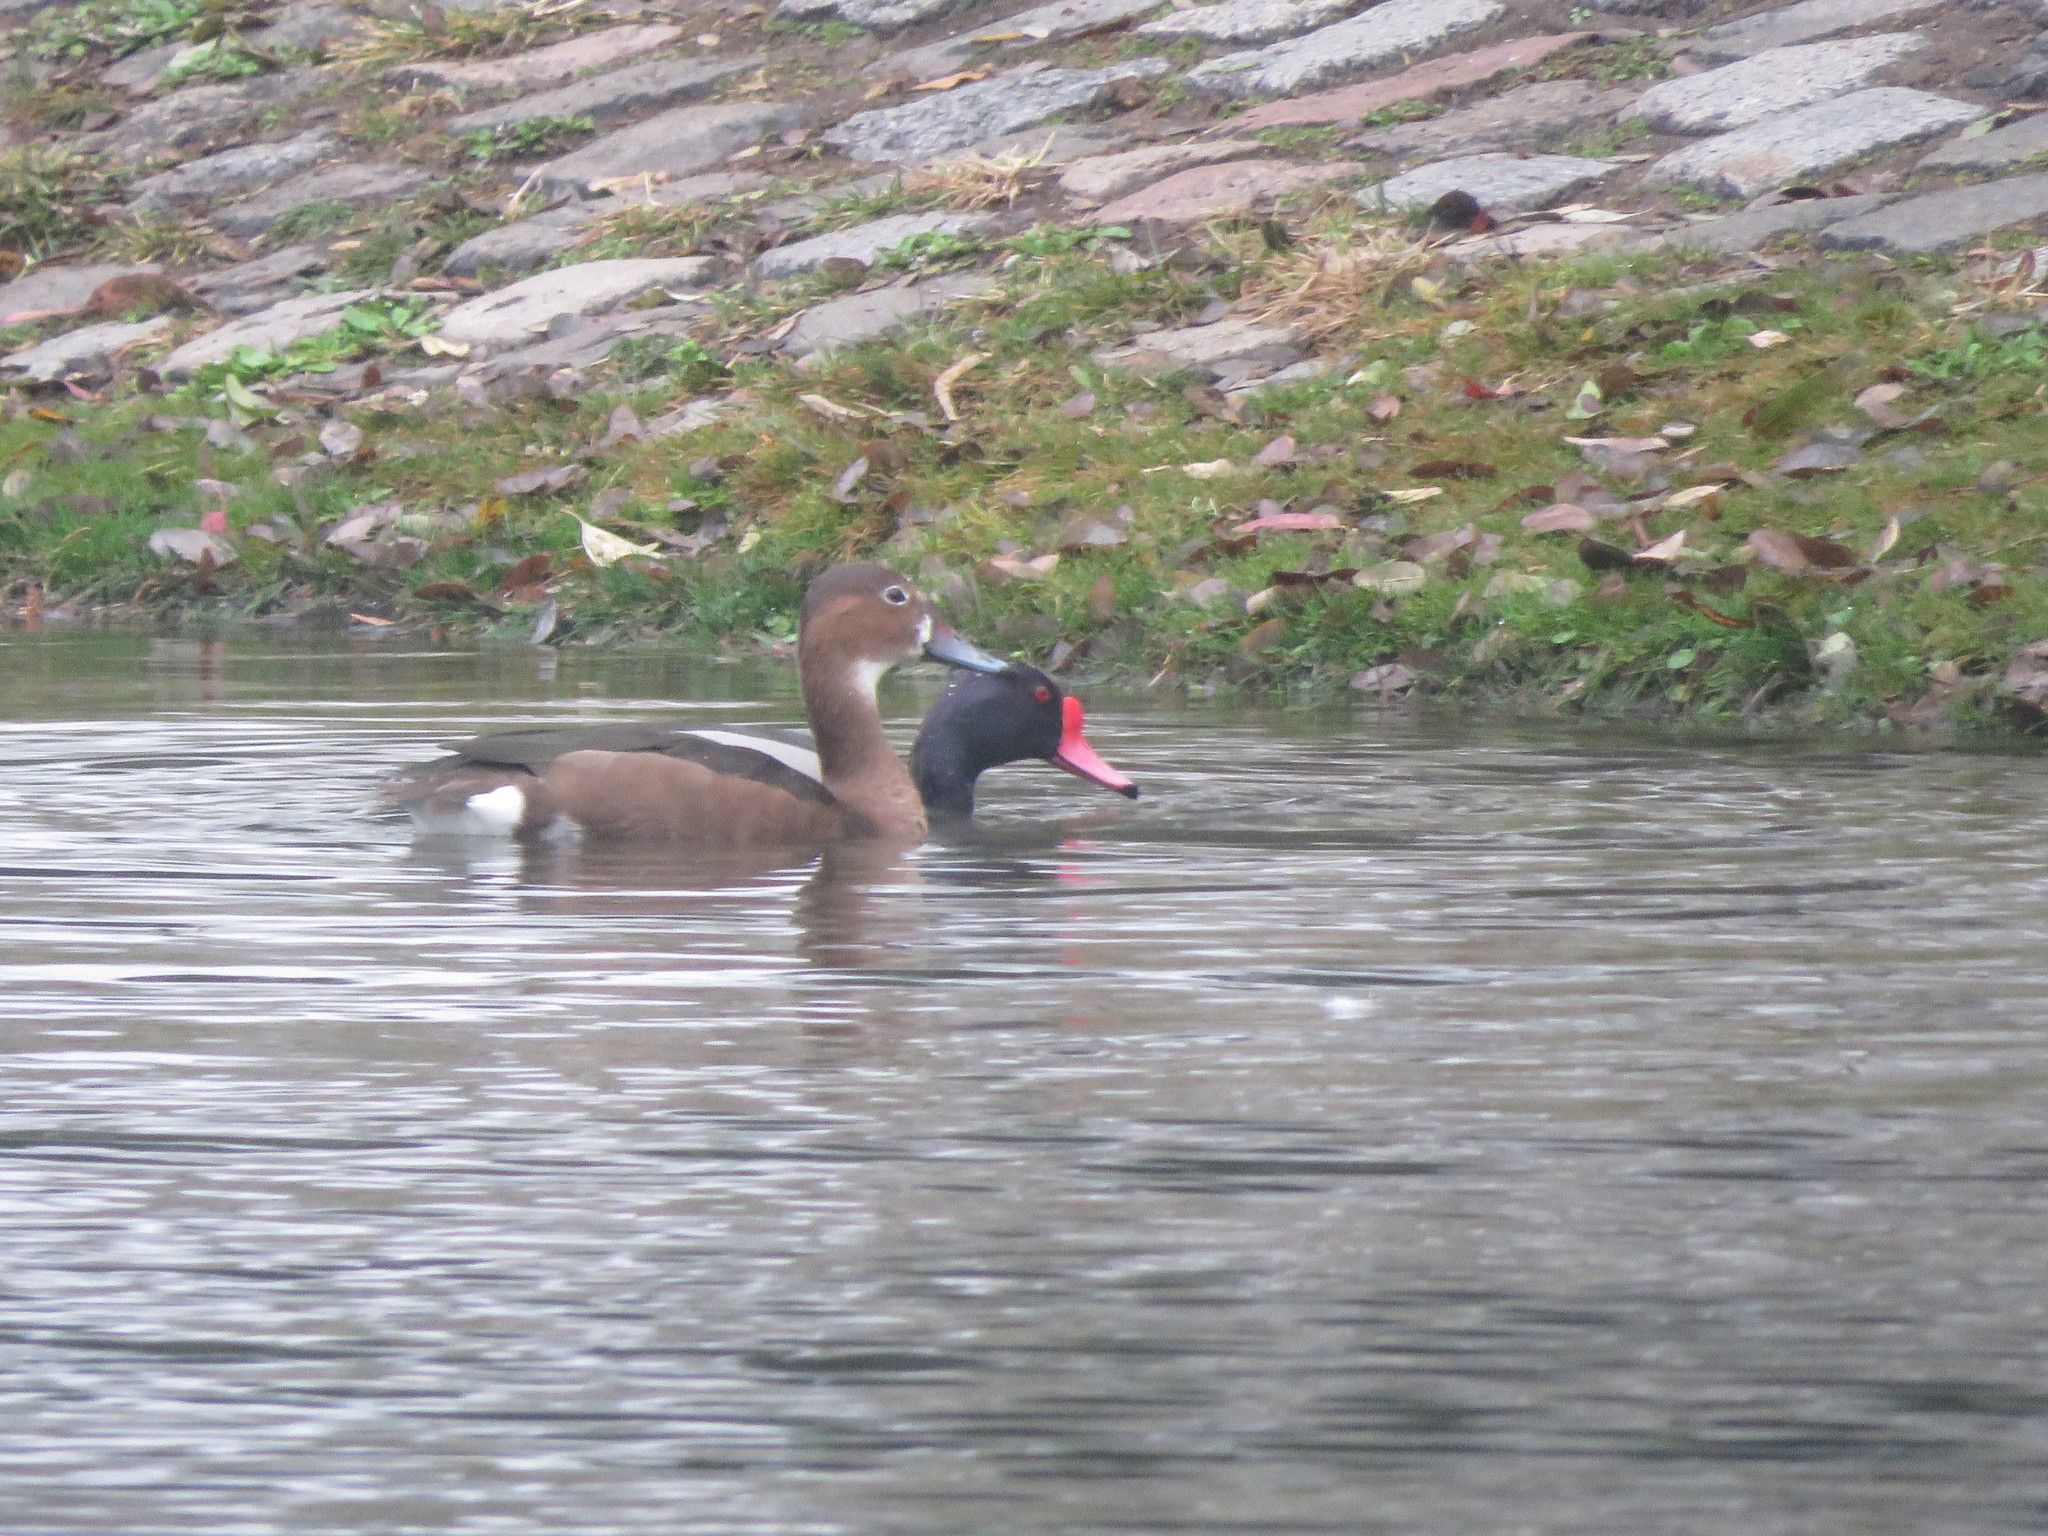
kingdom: Animalia
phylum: Chordata
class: Aves
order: Anseriformes
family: Anatidae
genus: Netta
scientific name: Netta peposaca
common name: Rosy-billed pochard
